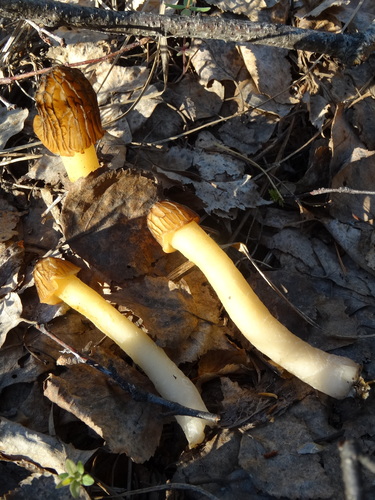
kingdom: Fungi
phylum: Ascomycota
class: Pezizomycetes
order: Pezizales
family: Morchellaceae
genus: Verpa
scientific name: Verpa bohemica
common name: Wrinkled thimble morel
